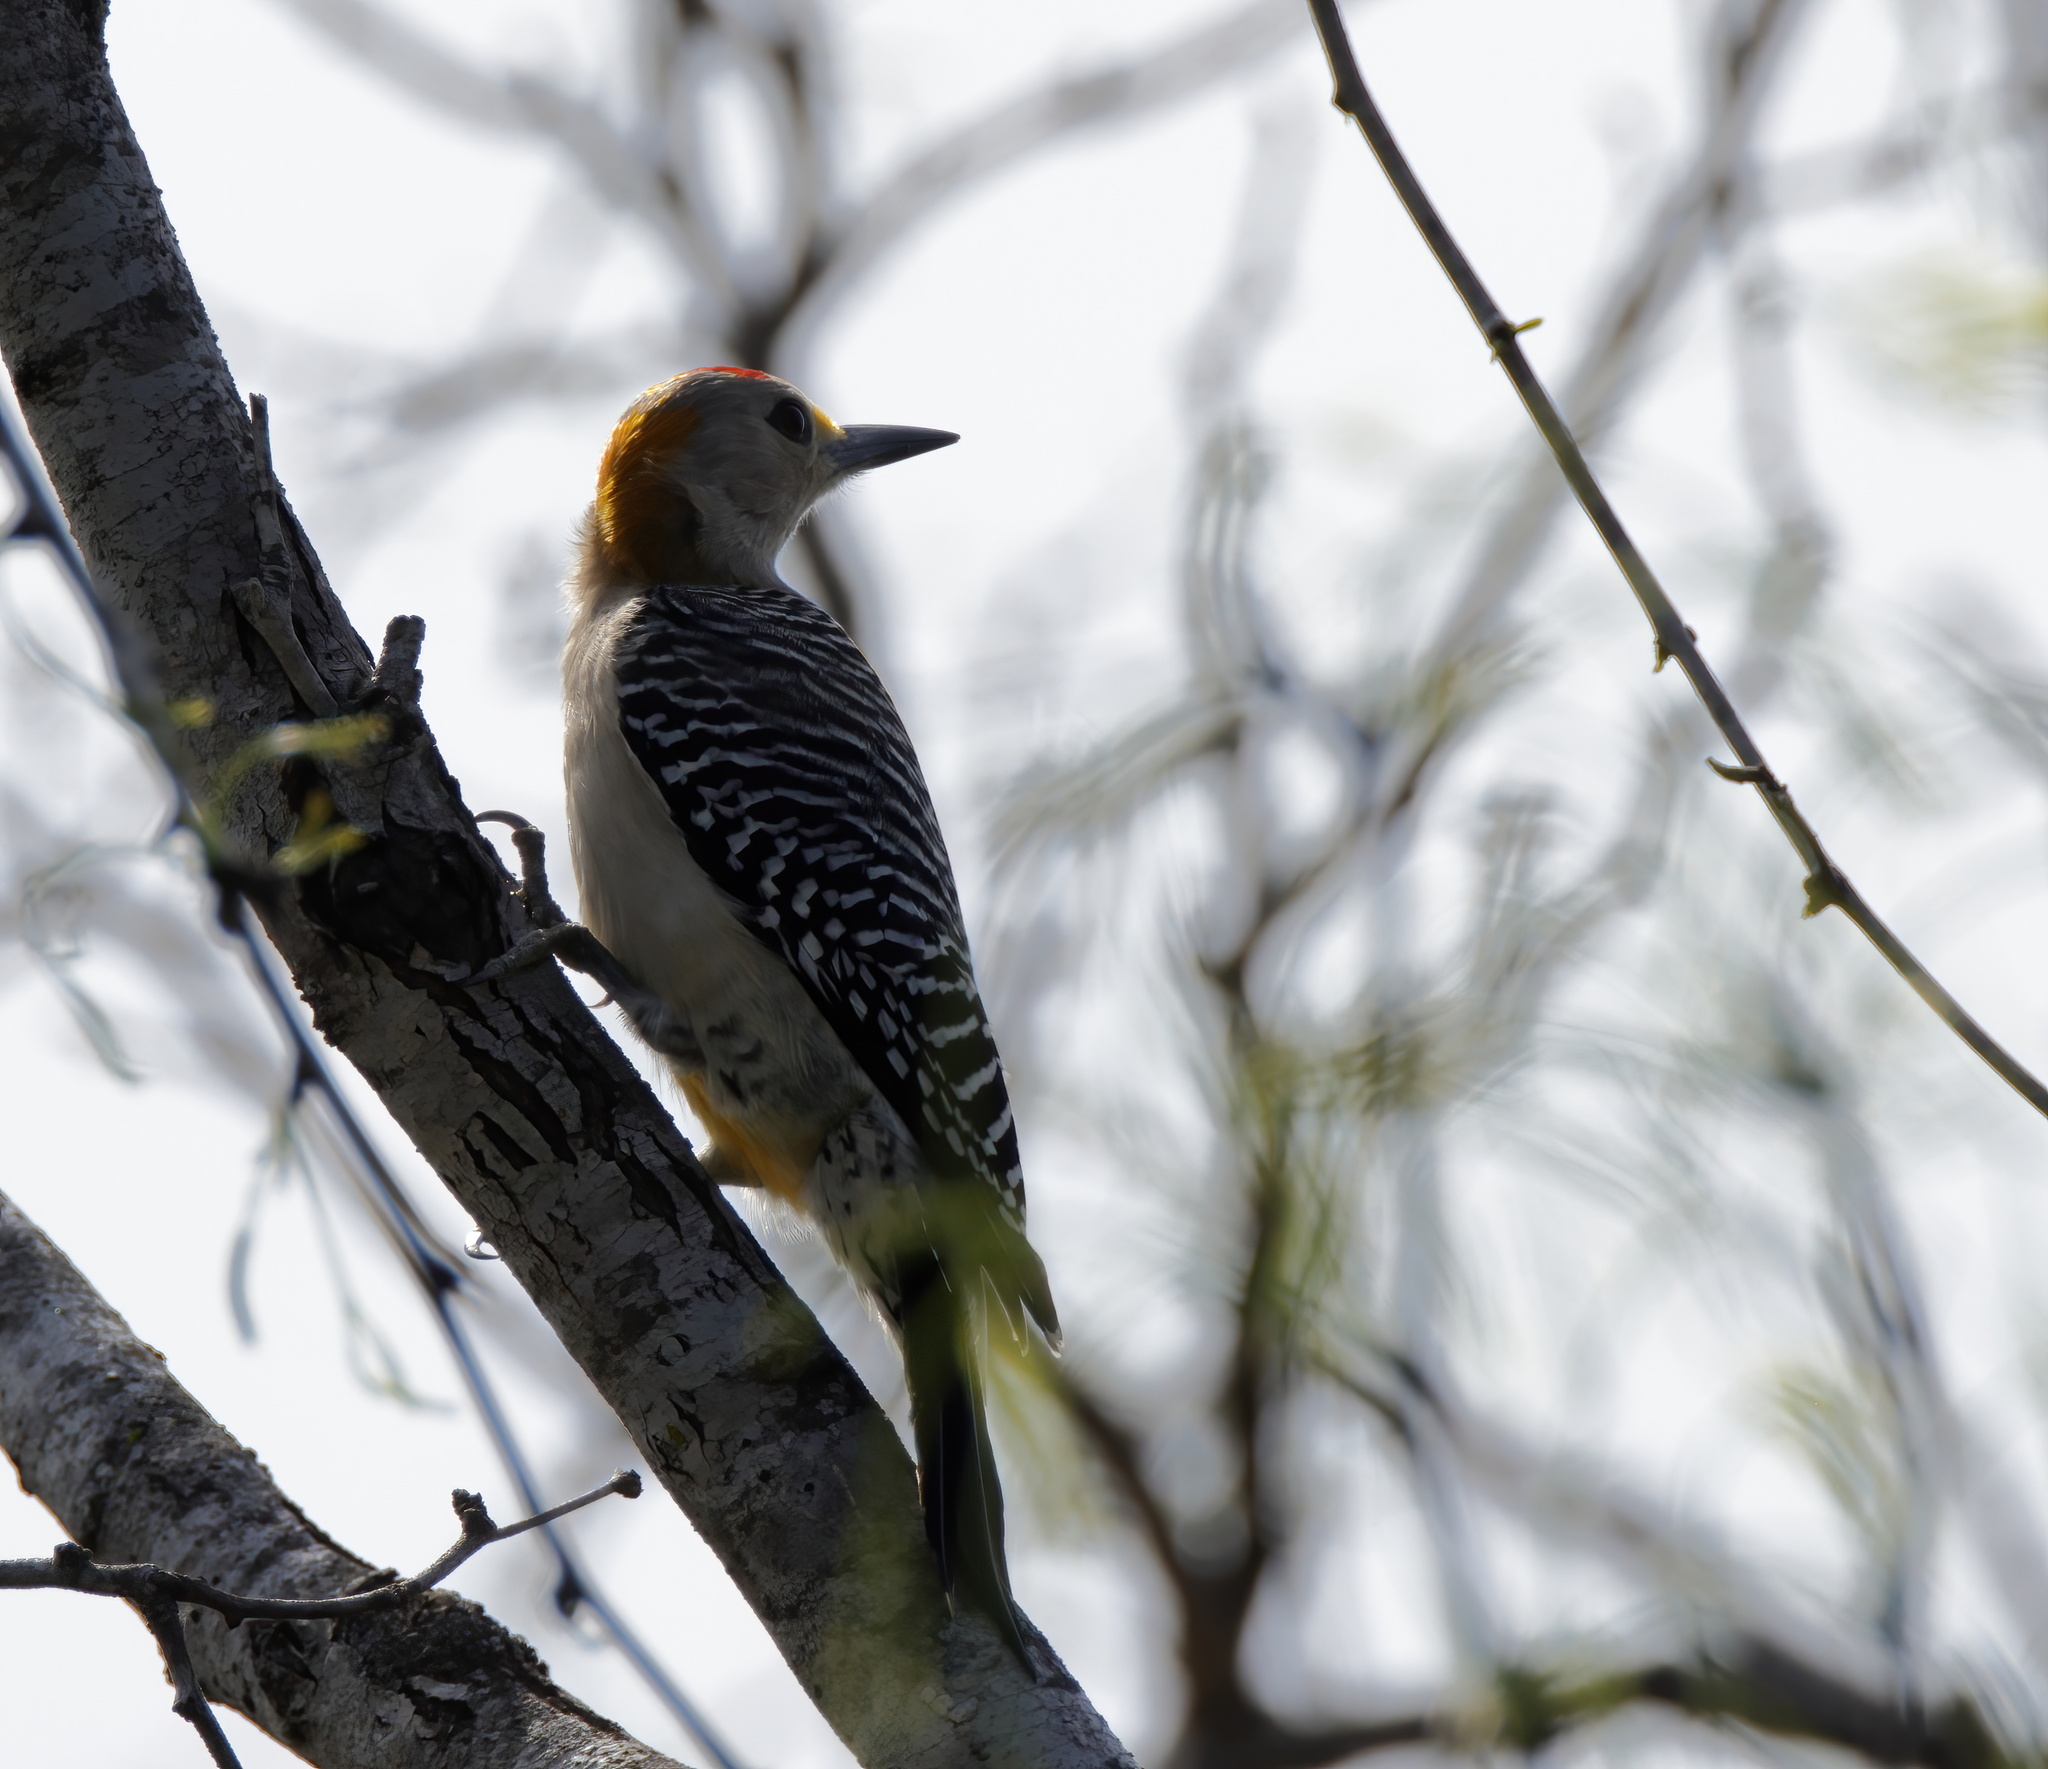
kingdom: Animalia
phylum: Chordata
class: Aves
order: Piciformes
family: Picidae
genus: Melanerpes
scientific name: Melanerpes aurifrons
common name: Golden-fronted woodpecker
